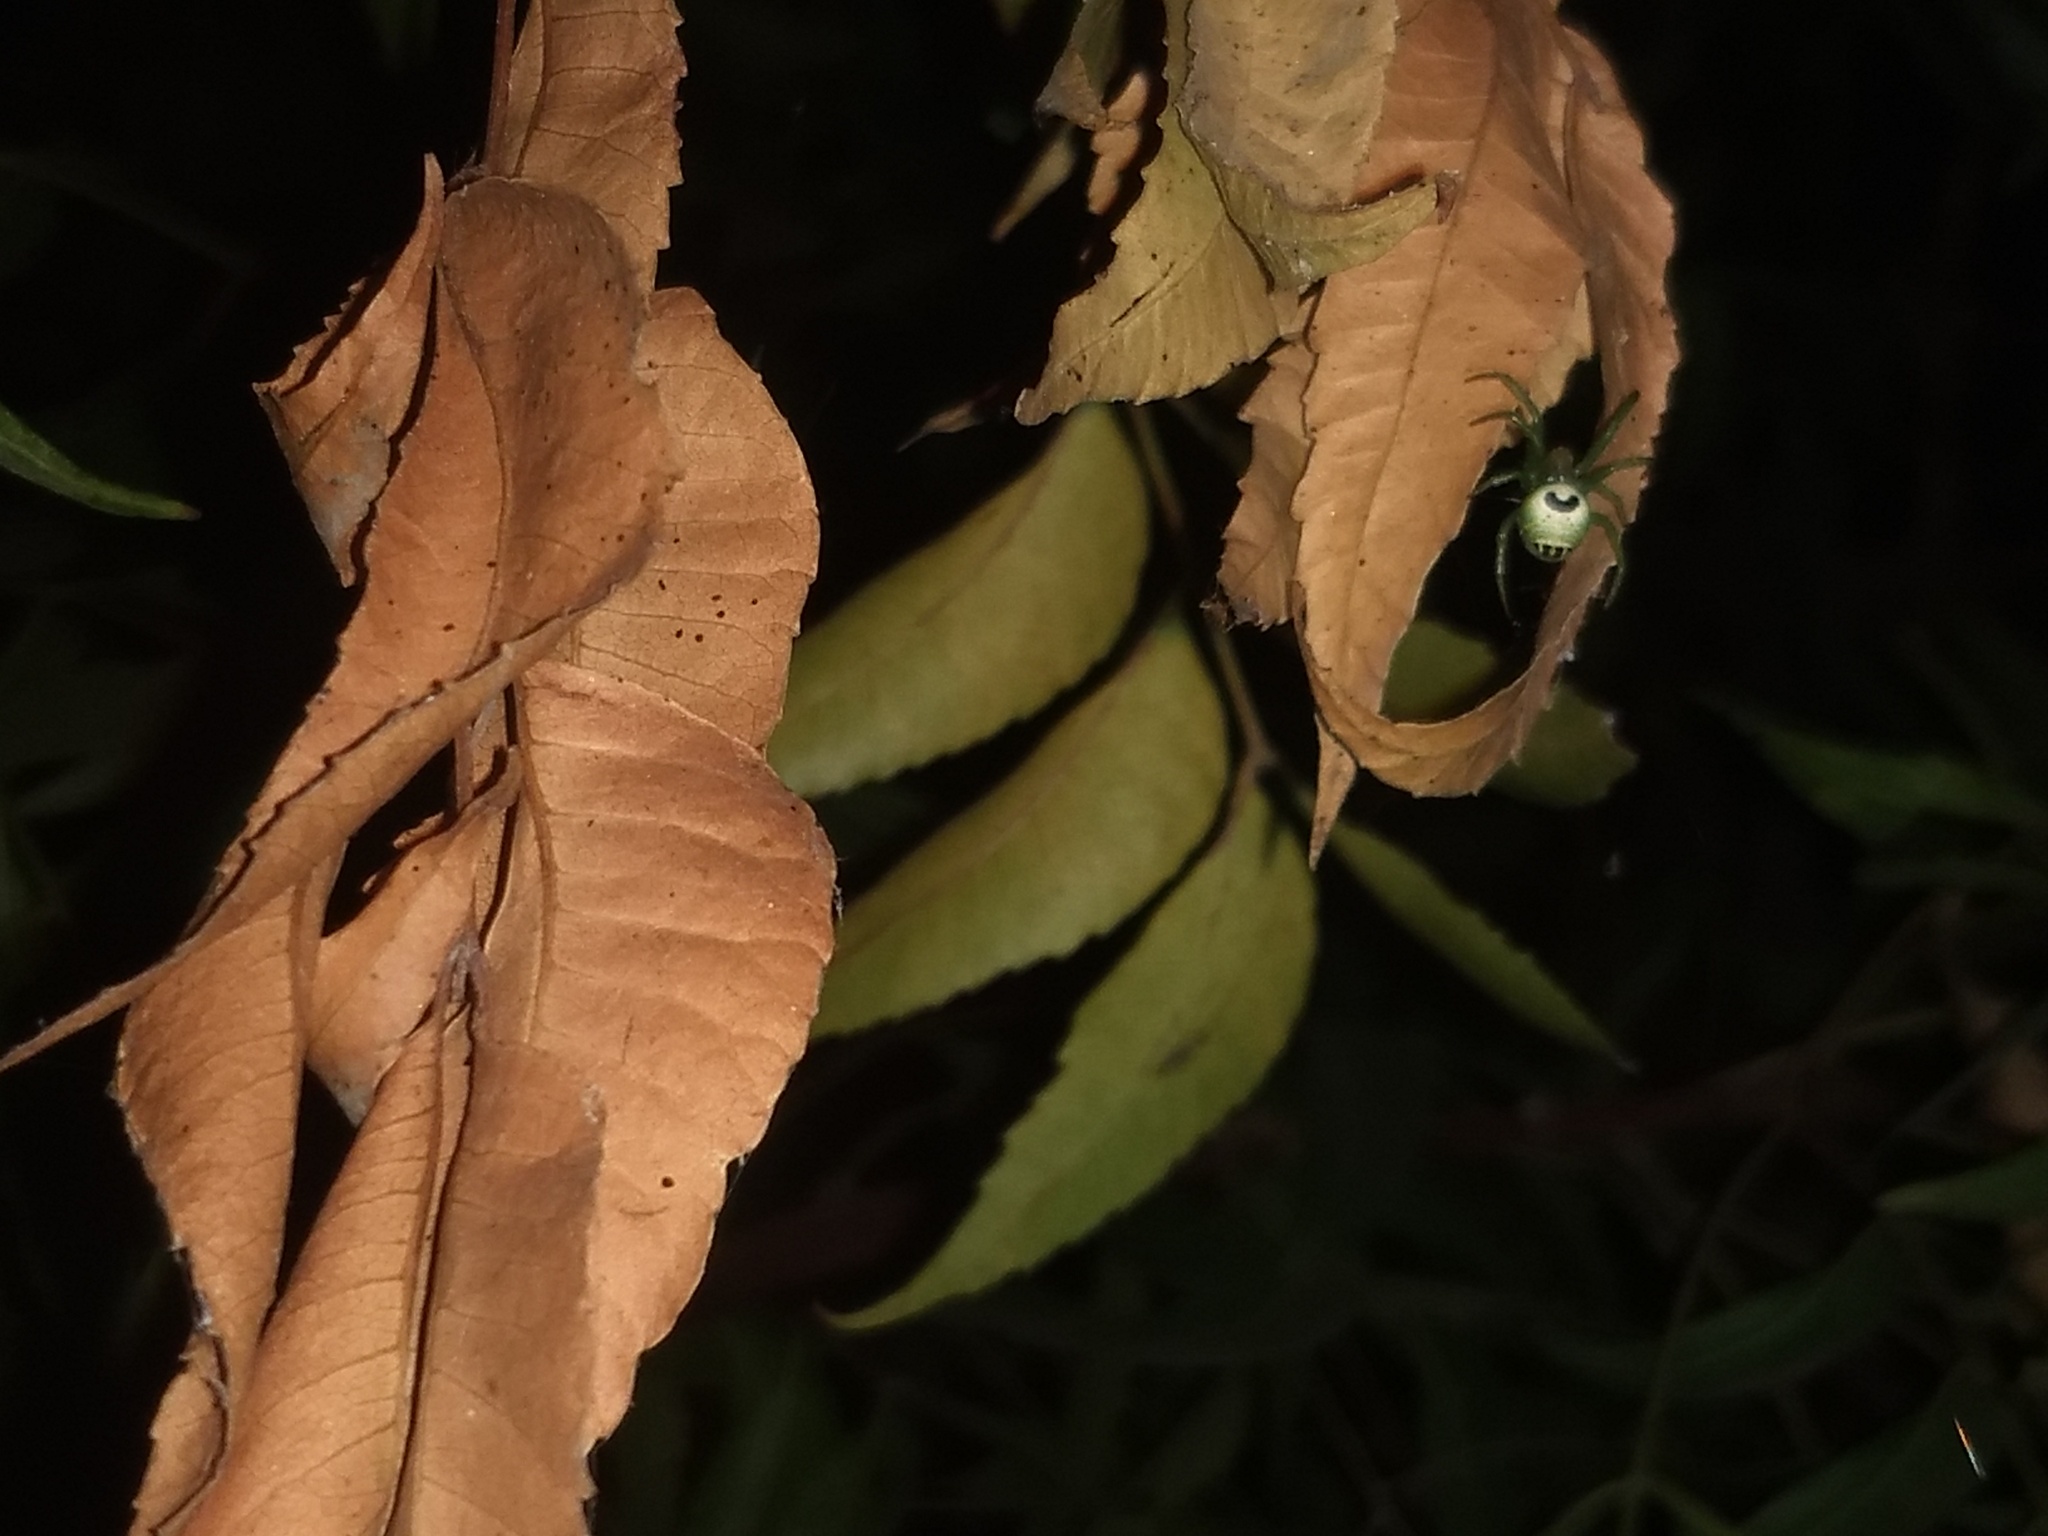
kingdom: Animalia
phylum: Arthropoda
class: Arachnida
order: Araneae
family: Araneidae
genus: Bijoaraneus
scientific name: Bijoaraneus mitificus
